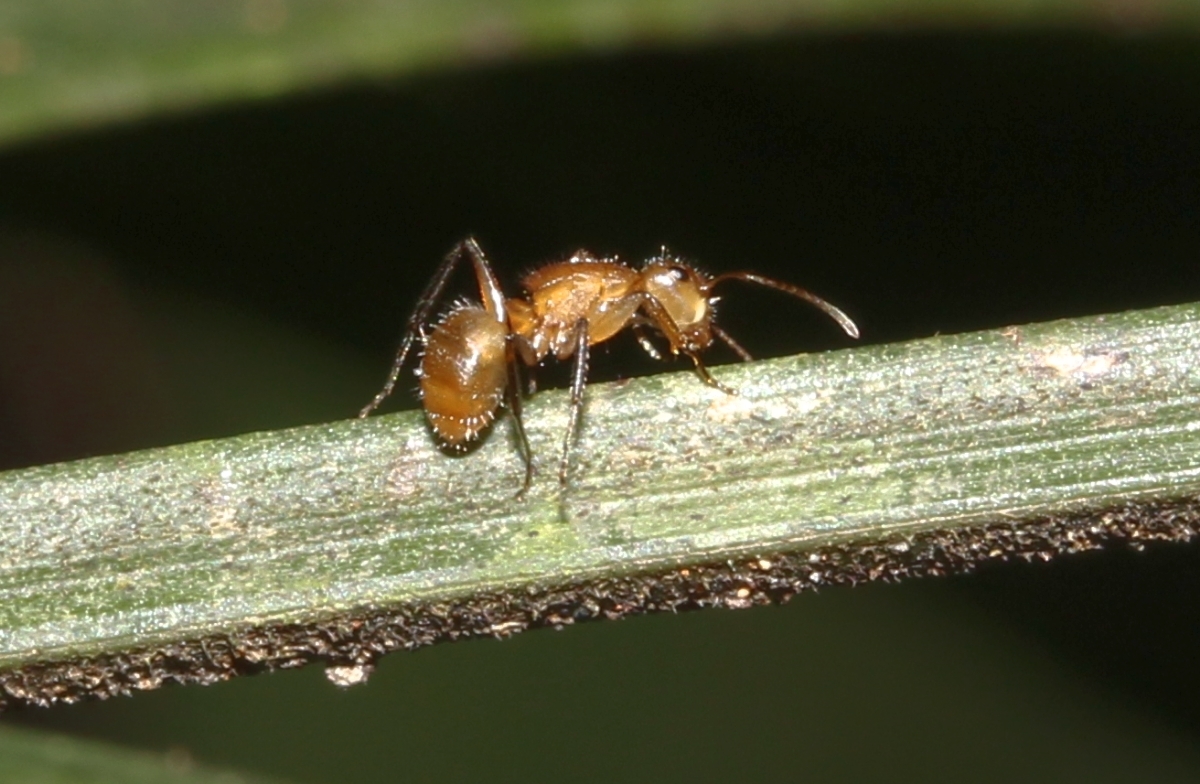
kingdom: Animalia
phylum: Arthropoda
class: Insecta
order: Hymenoptera
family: Formicidae
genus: Camponotus
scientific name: Camponotus latangulus
